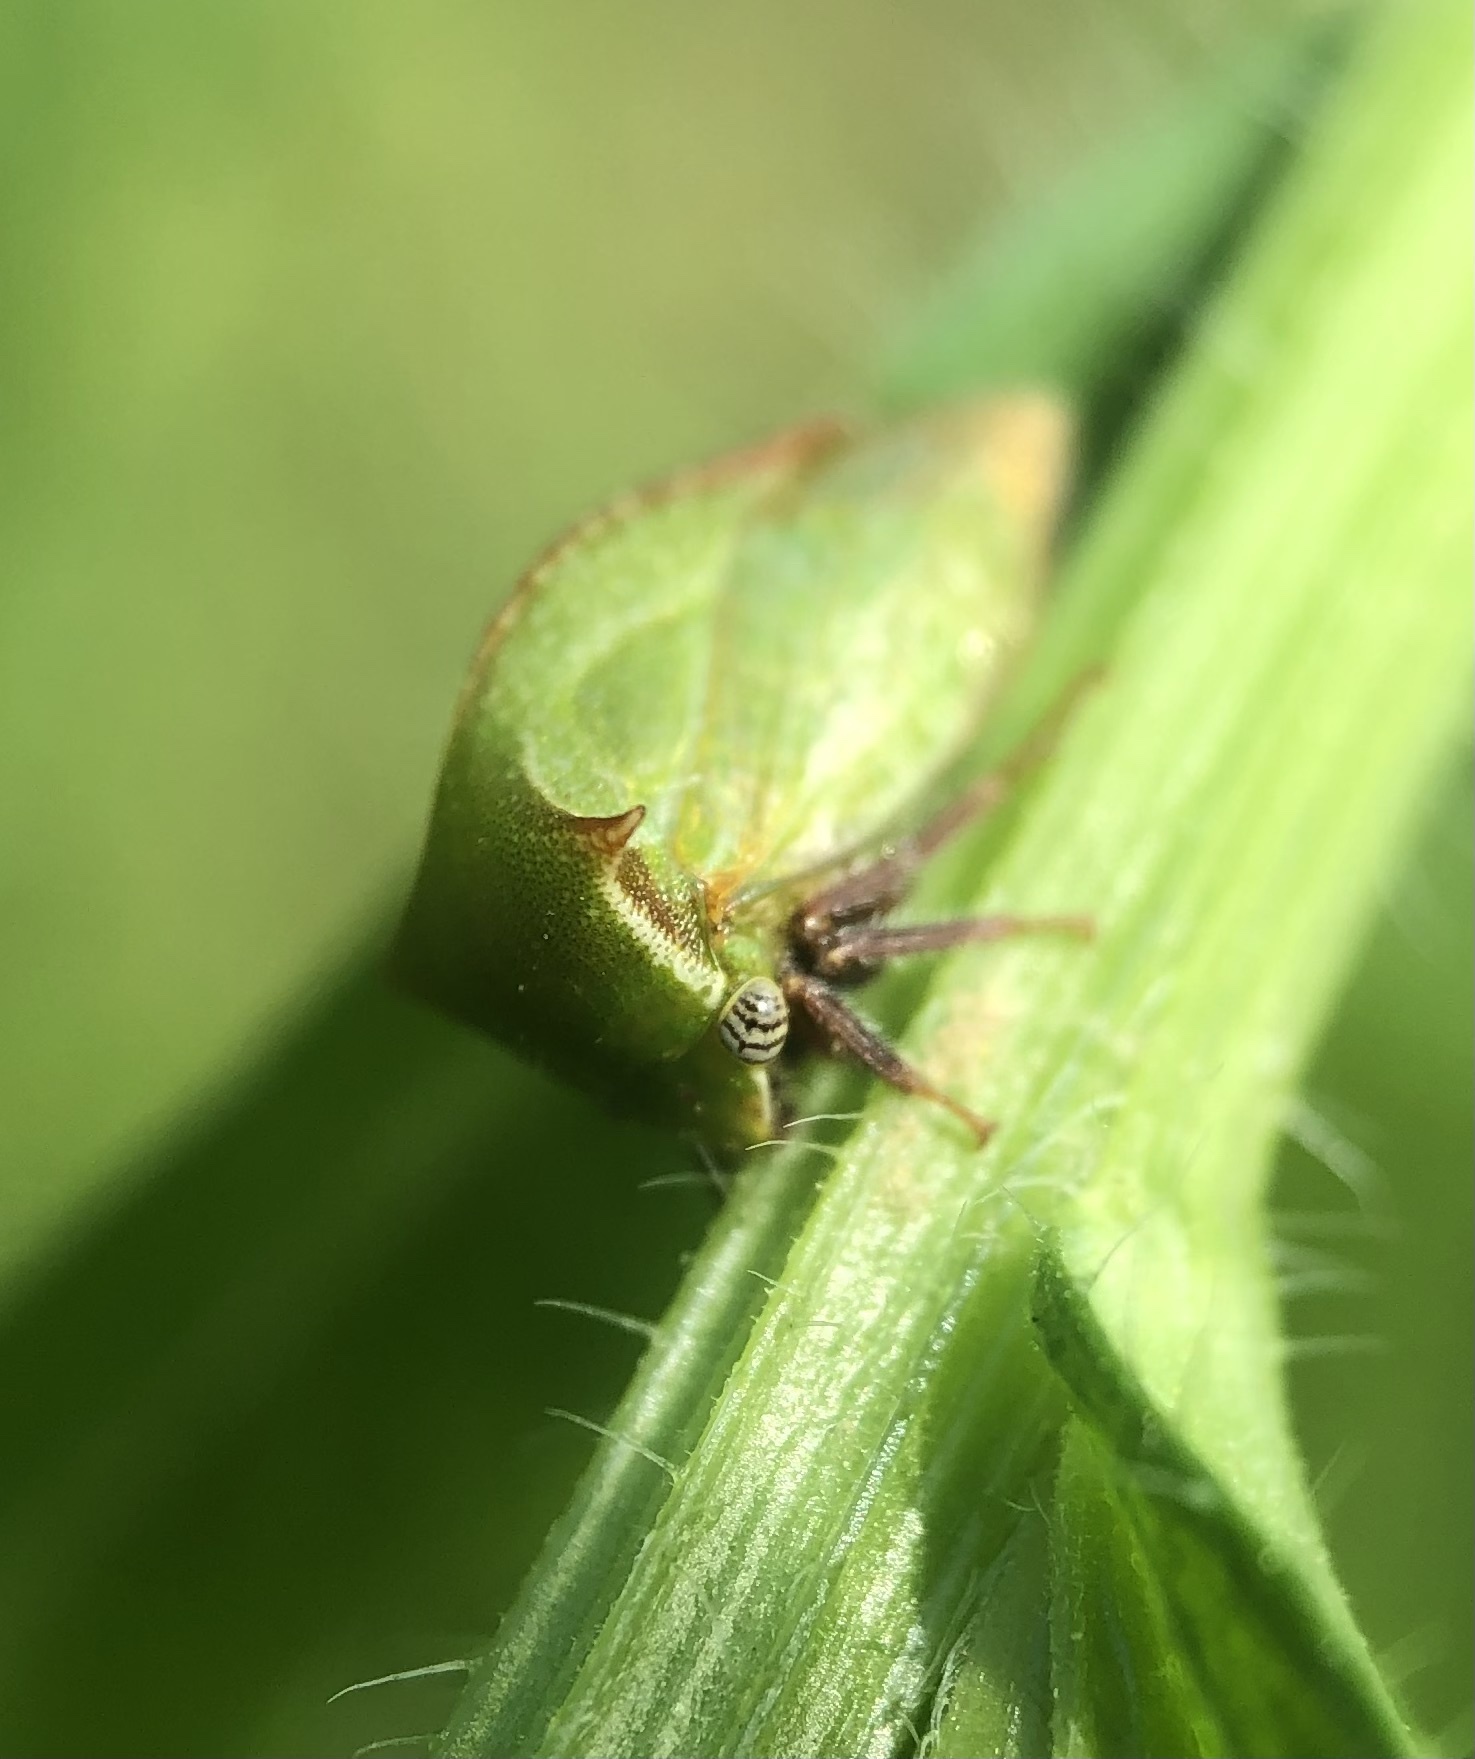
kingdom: Animalia
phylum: Arthropoda
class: Insecta
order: Hemiptera
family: Membracidae
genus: Stictocephala
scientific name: Stictocephala brevitylus
